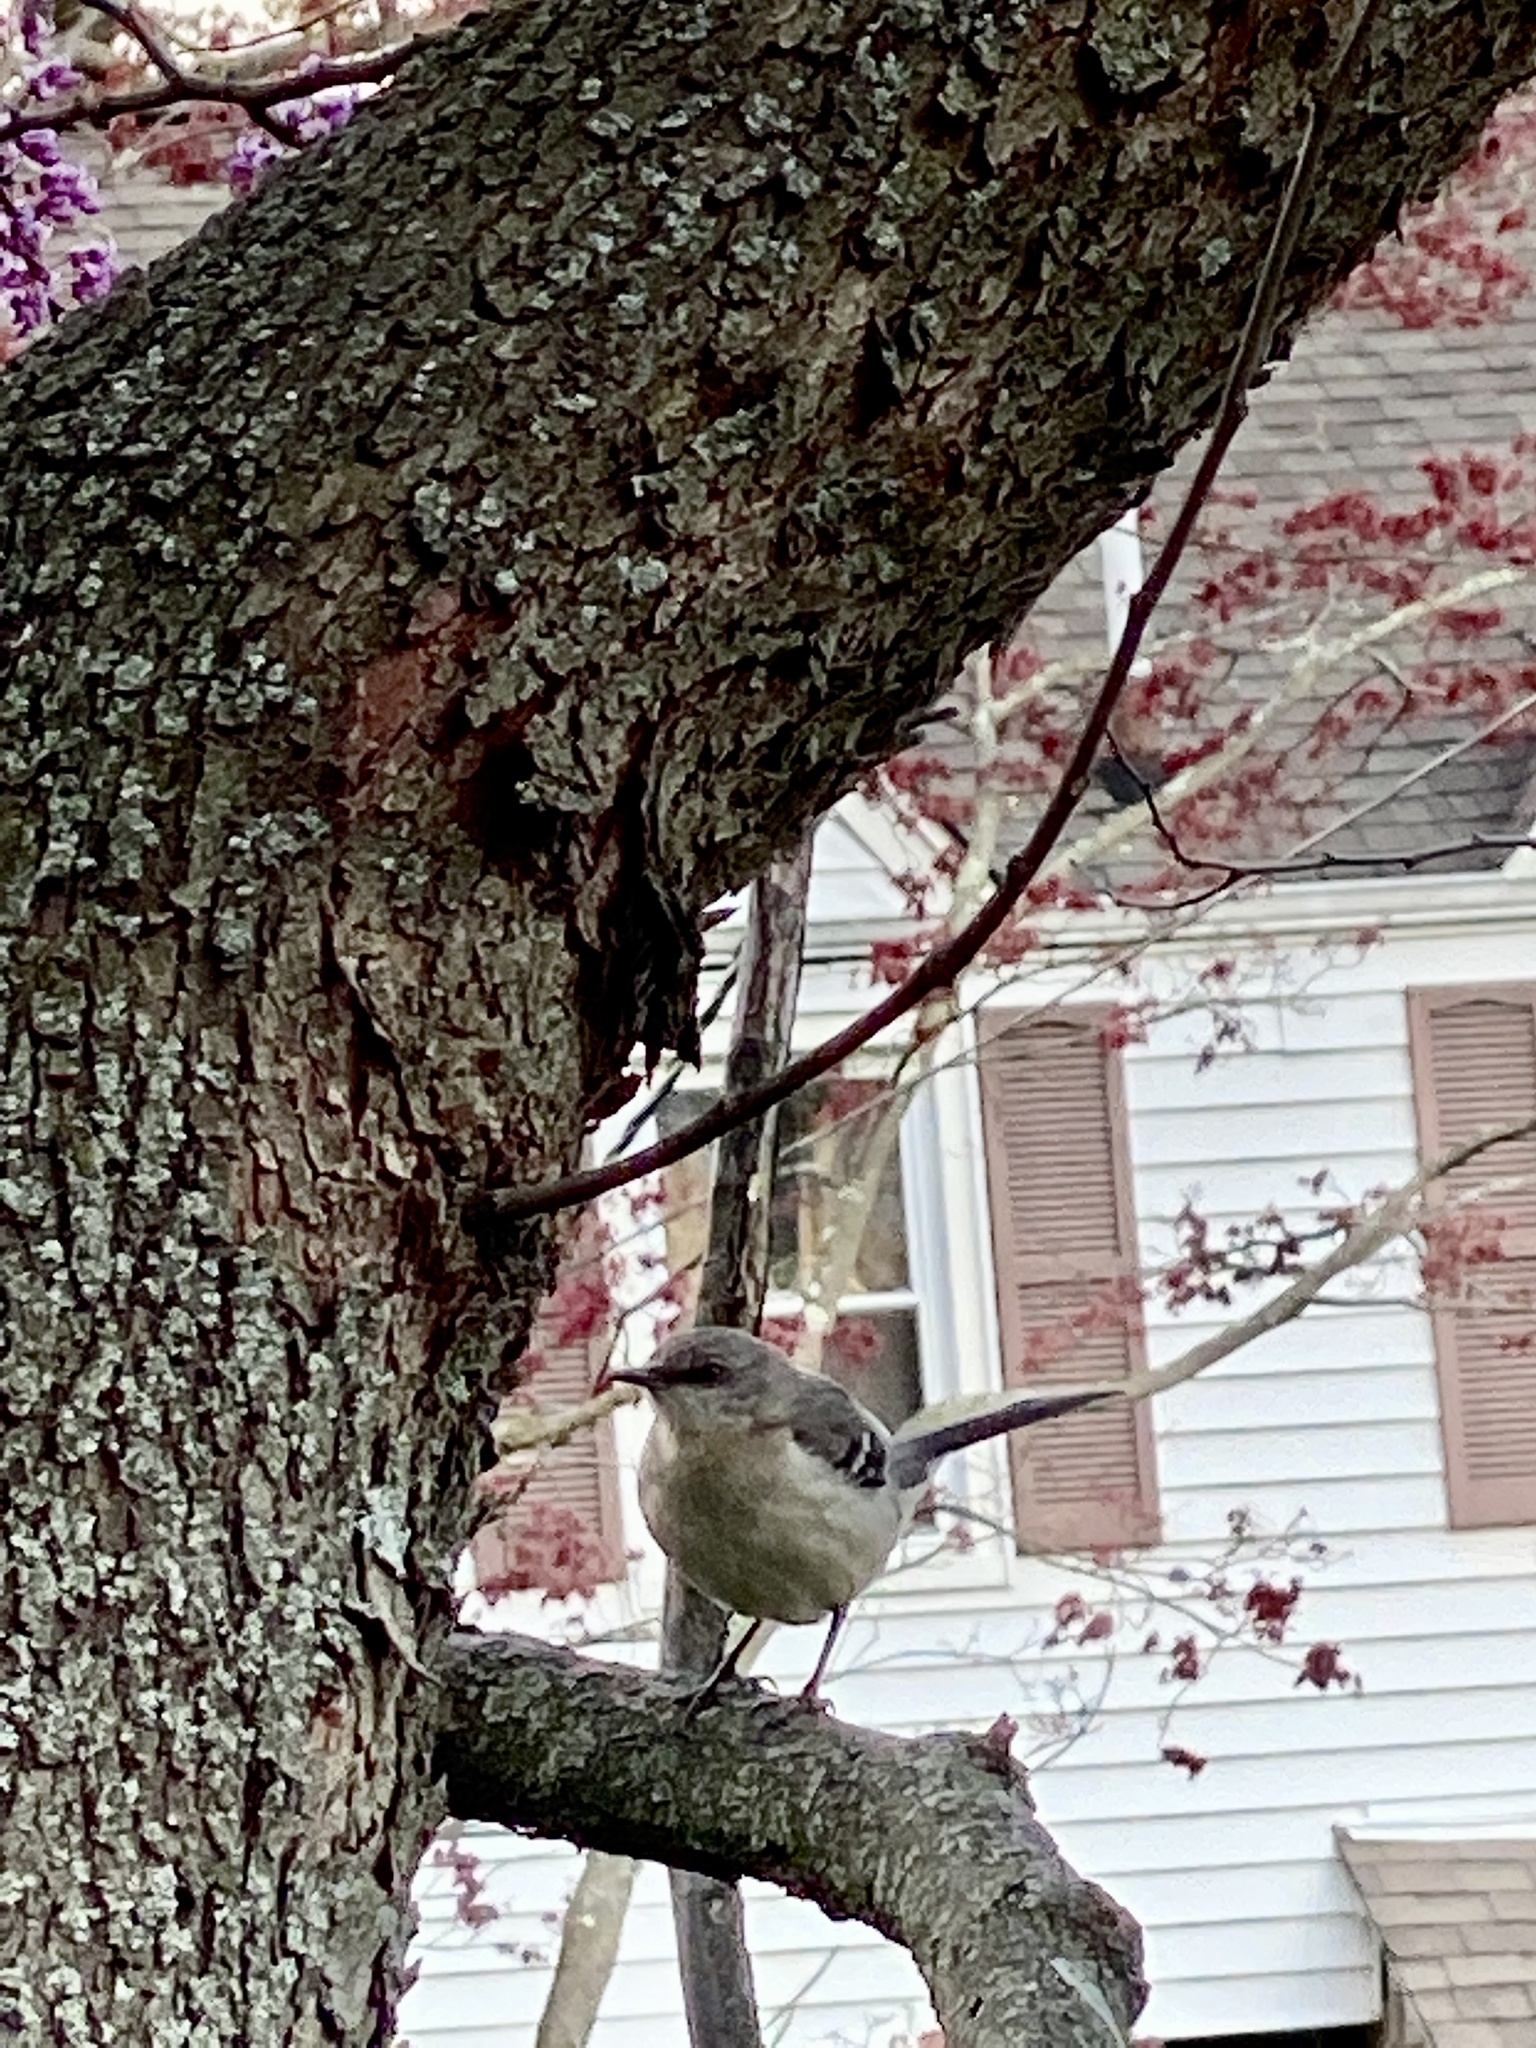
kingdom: Animalia
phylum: Chordata
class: Aves
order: Passeriformes
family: Mimidae
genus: Mimus
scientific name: Mimus polyglottos
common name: Northern mockingbird
